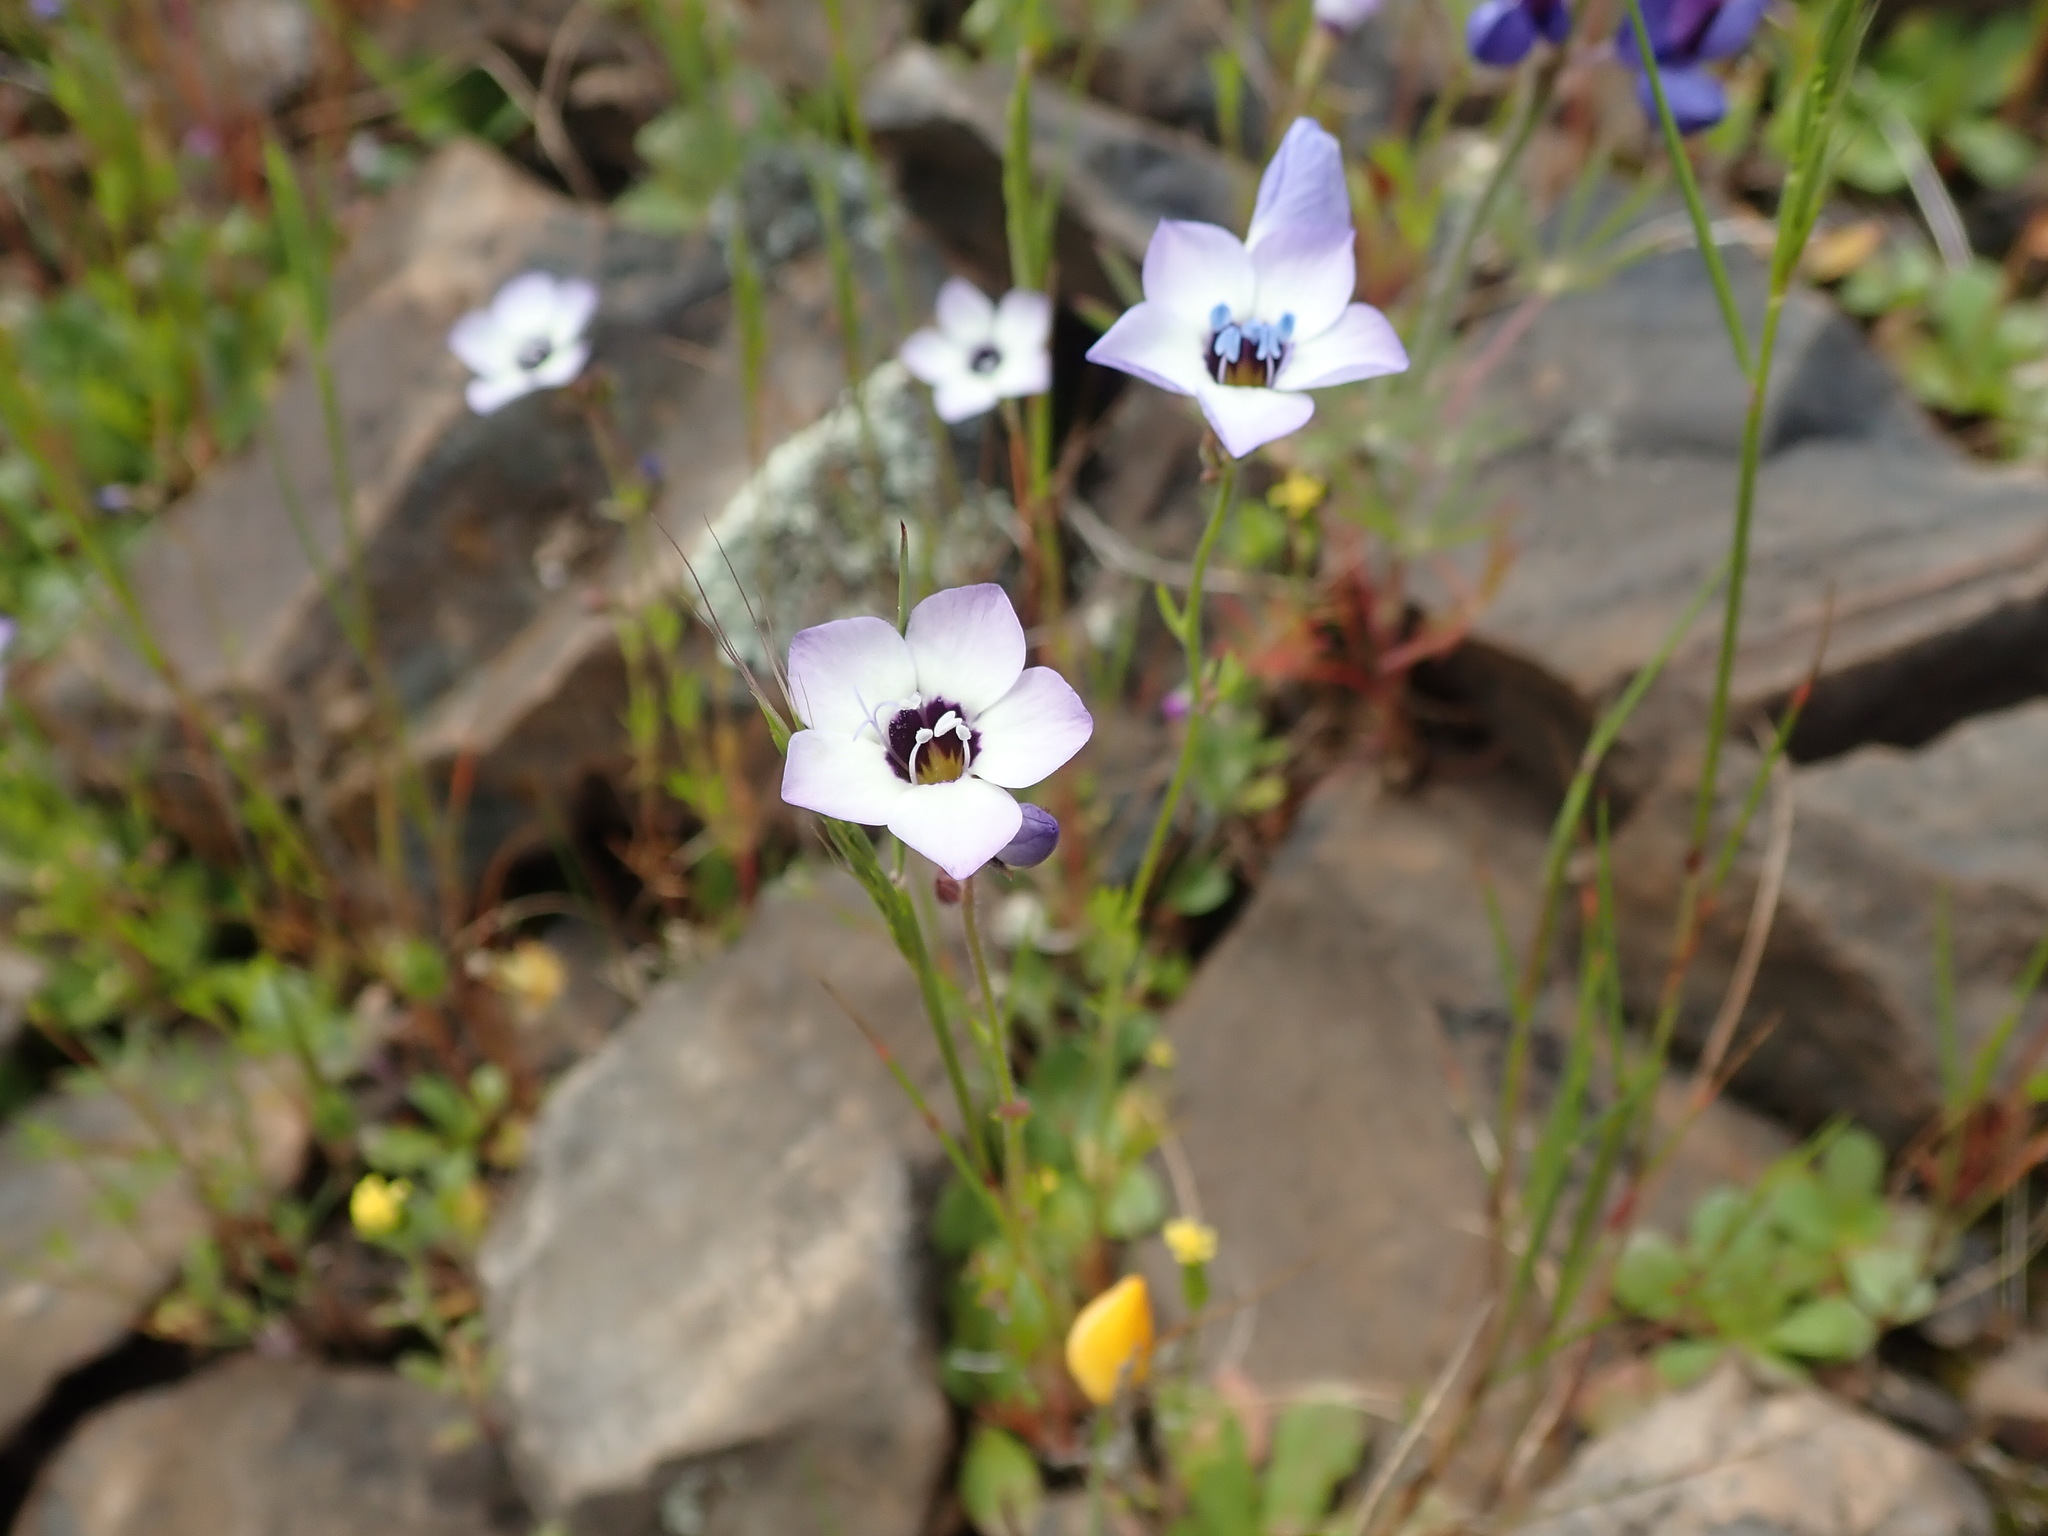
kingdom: Plantae
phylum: Tracheophyta
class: Magnoliopsida
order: Ericales
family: Polemoniaceae
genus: Gilia
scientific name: Gilia tricolor
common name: Bird's-eyes
